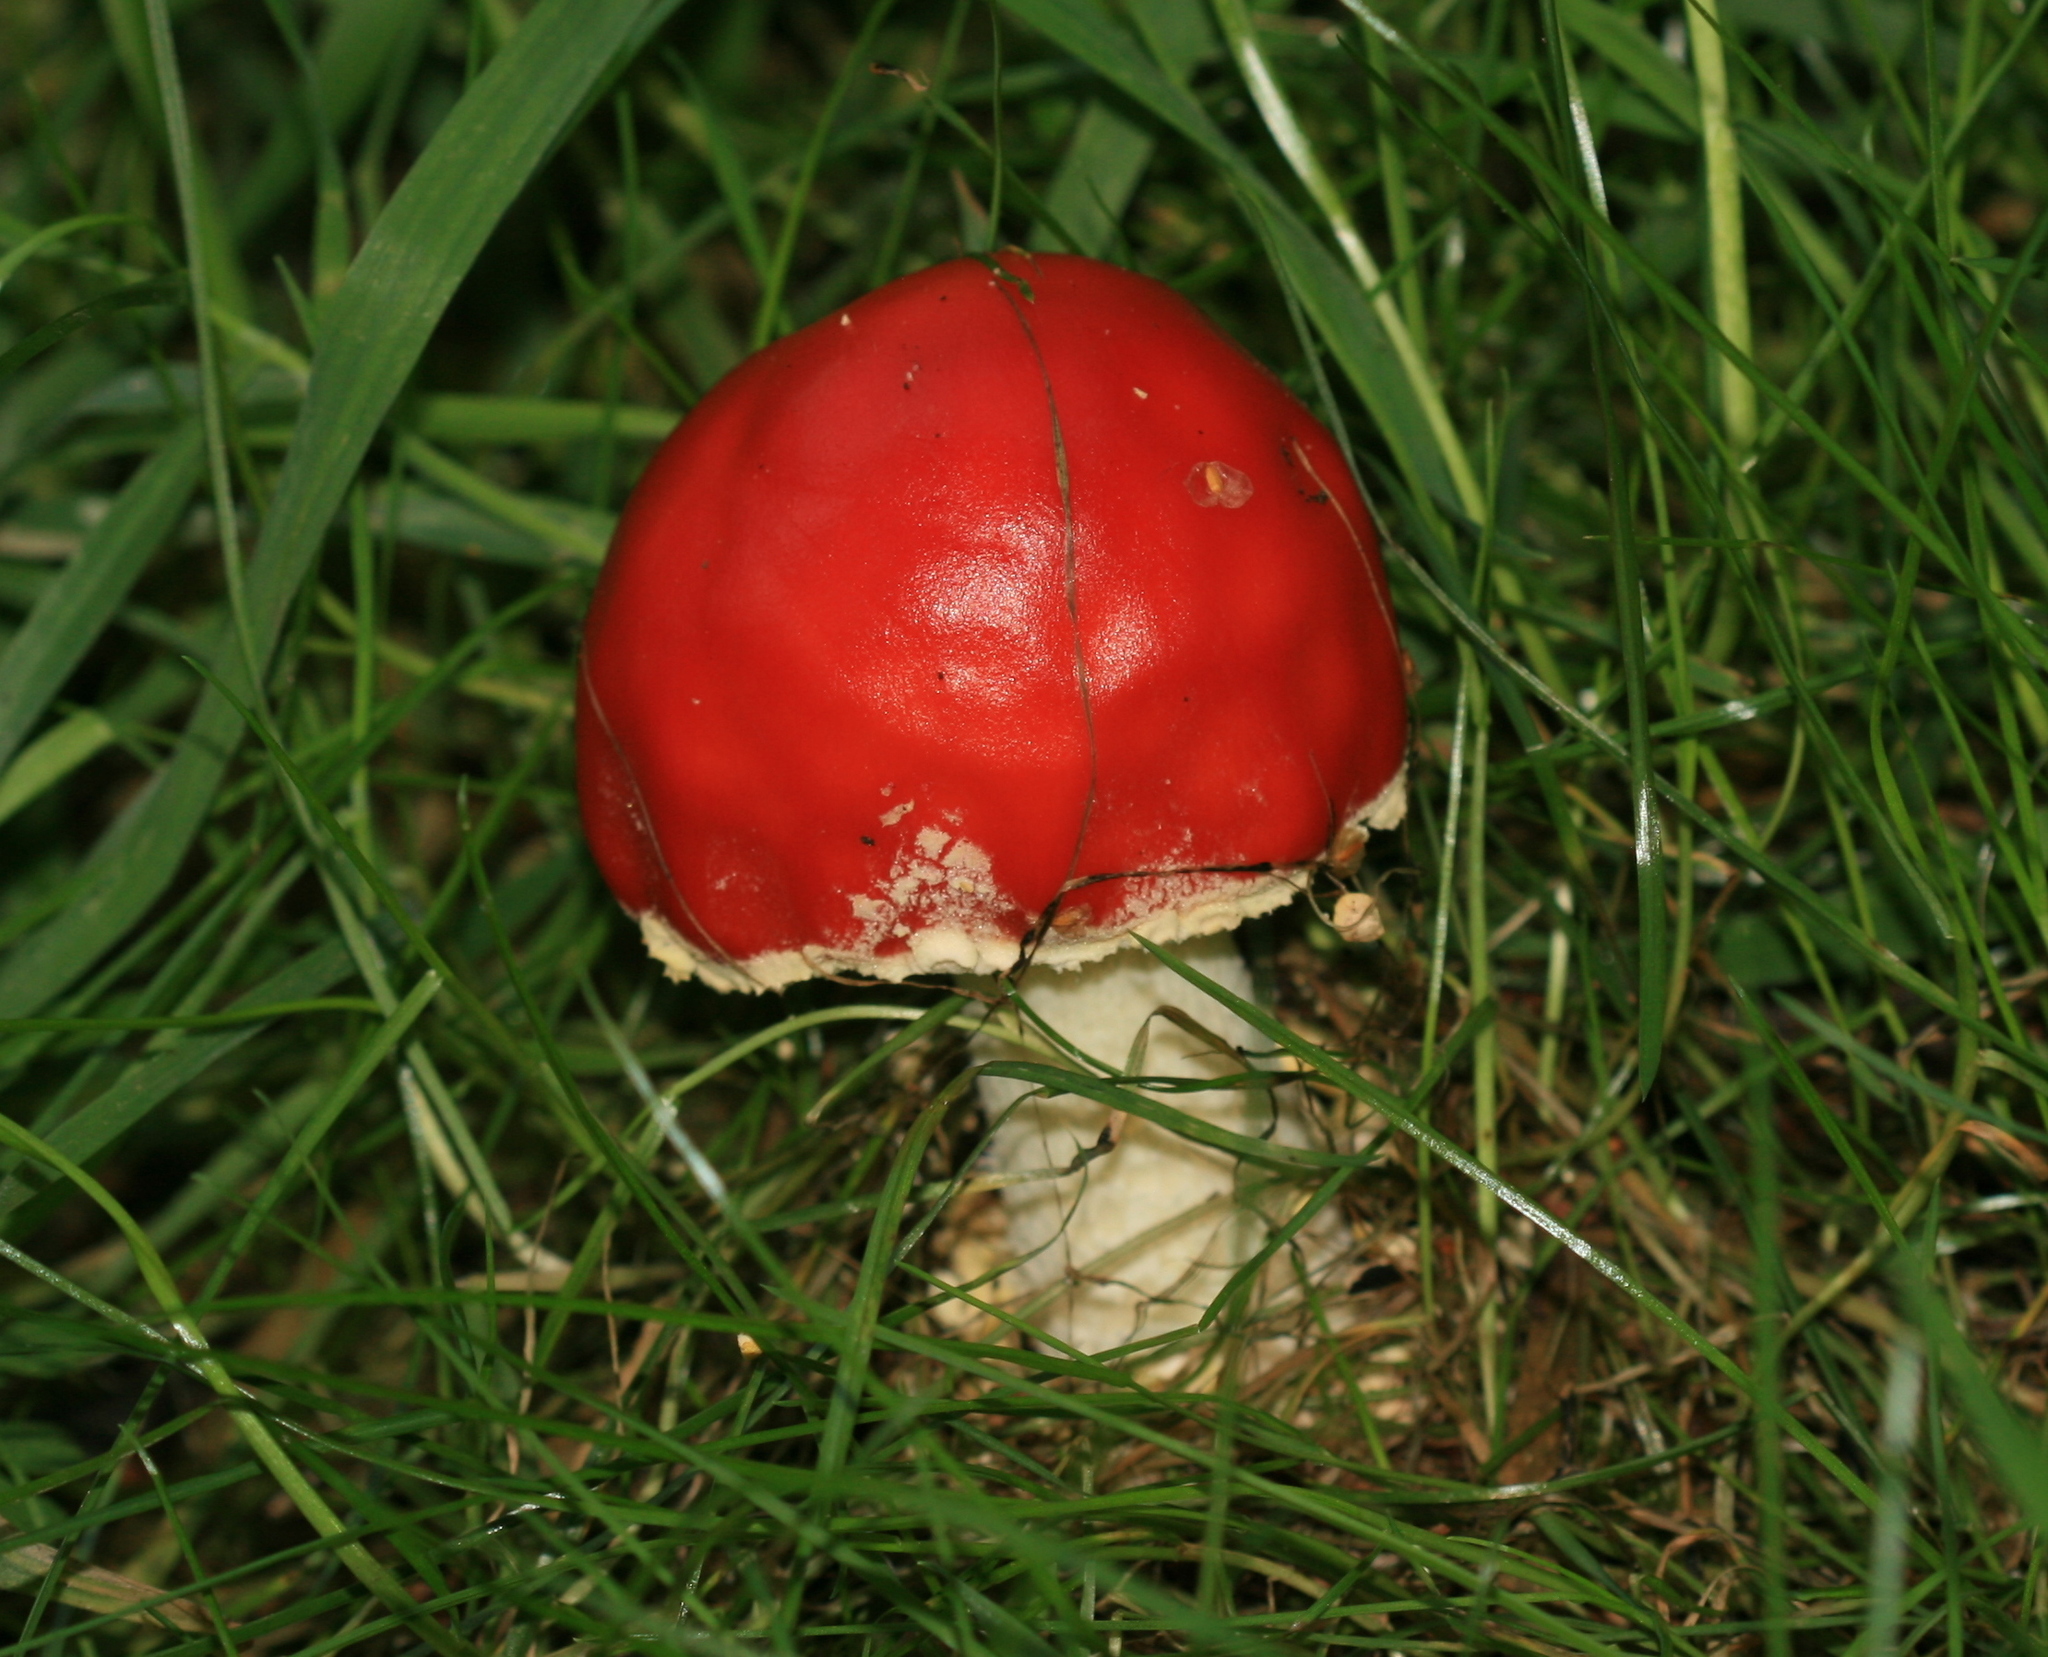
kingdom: Fungi
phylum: Basidiomycota
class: Agaricomycetes
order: Agaricales
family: Amanitaceae
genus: Amanita
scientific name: Amanita muscaria
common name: Fly agaric
